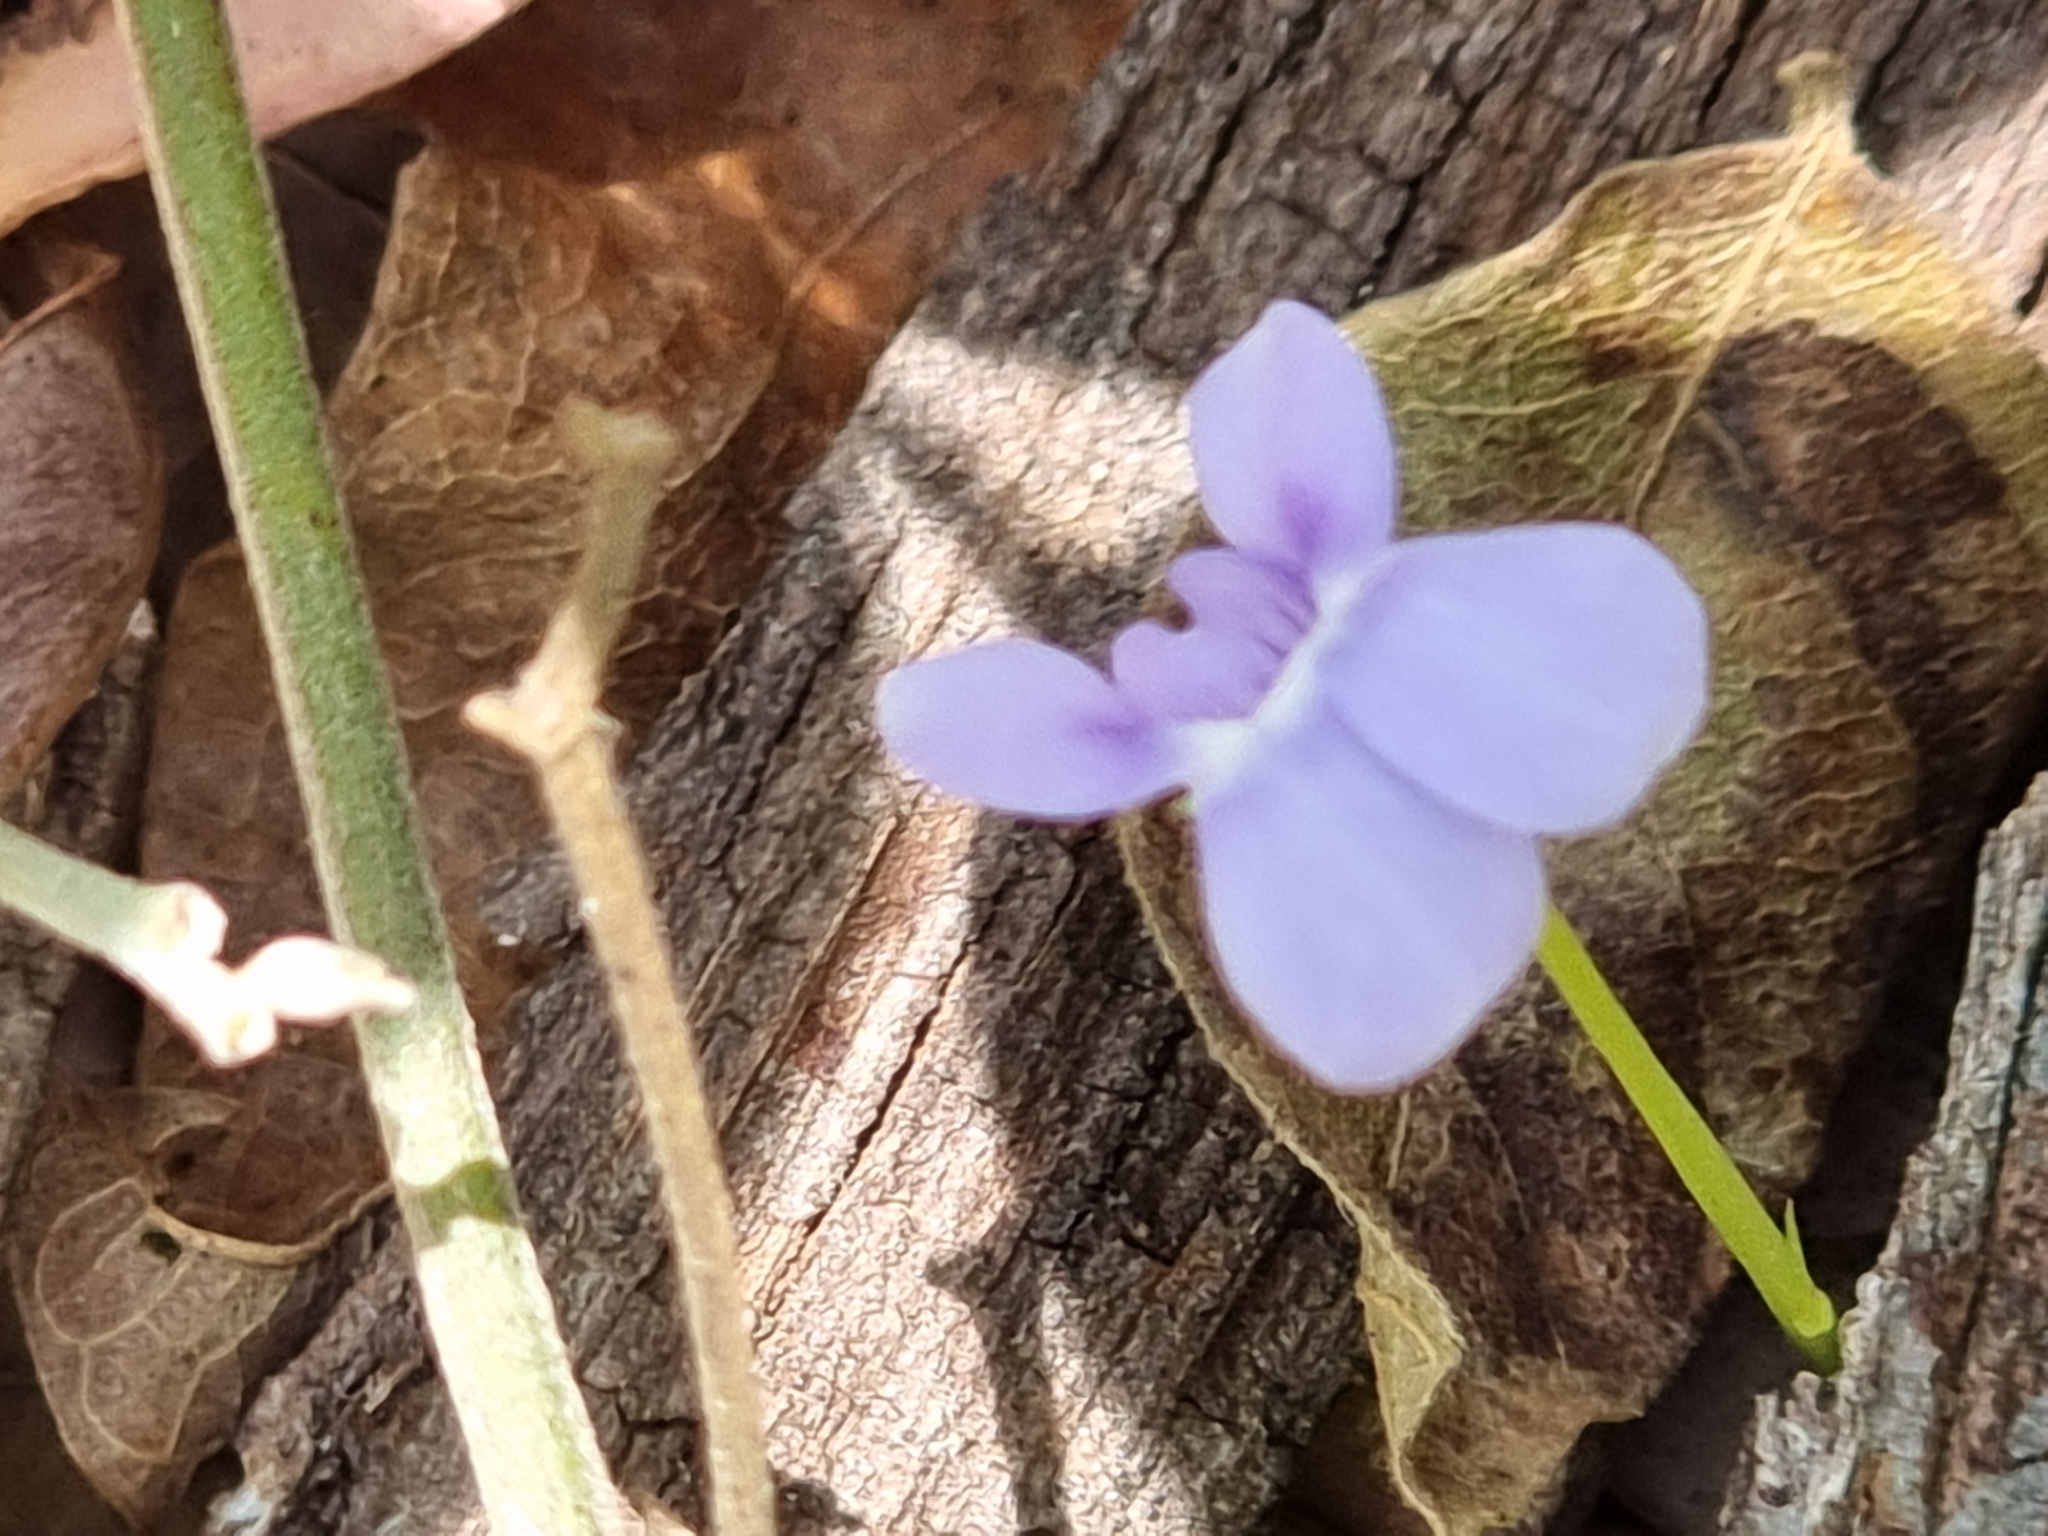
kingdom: Plantae
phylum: Tracheophyta
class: Magnoliopsida
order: Malpighiales
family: Violaceae
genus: Viola
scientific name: Viola hederacea
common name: Australian violet
